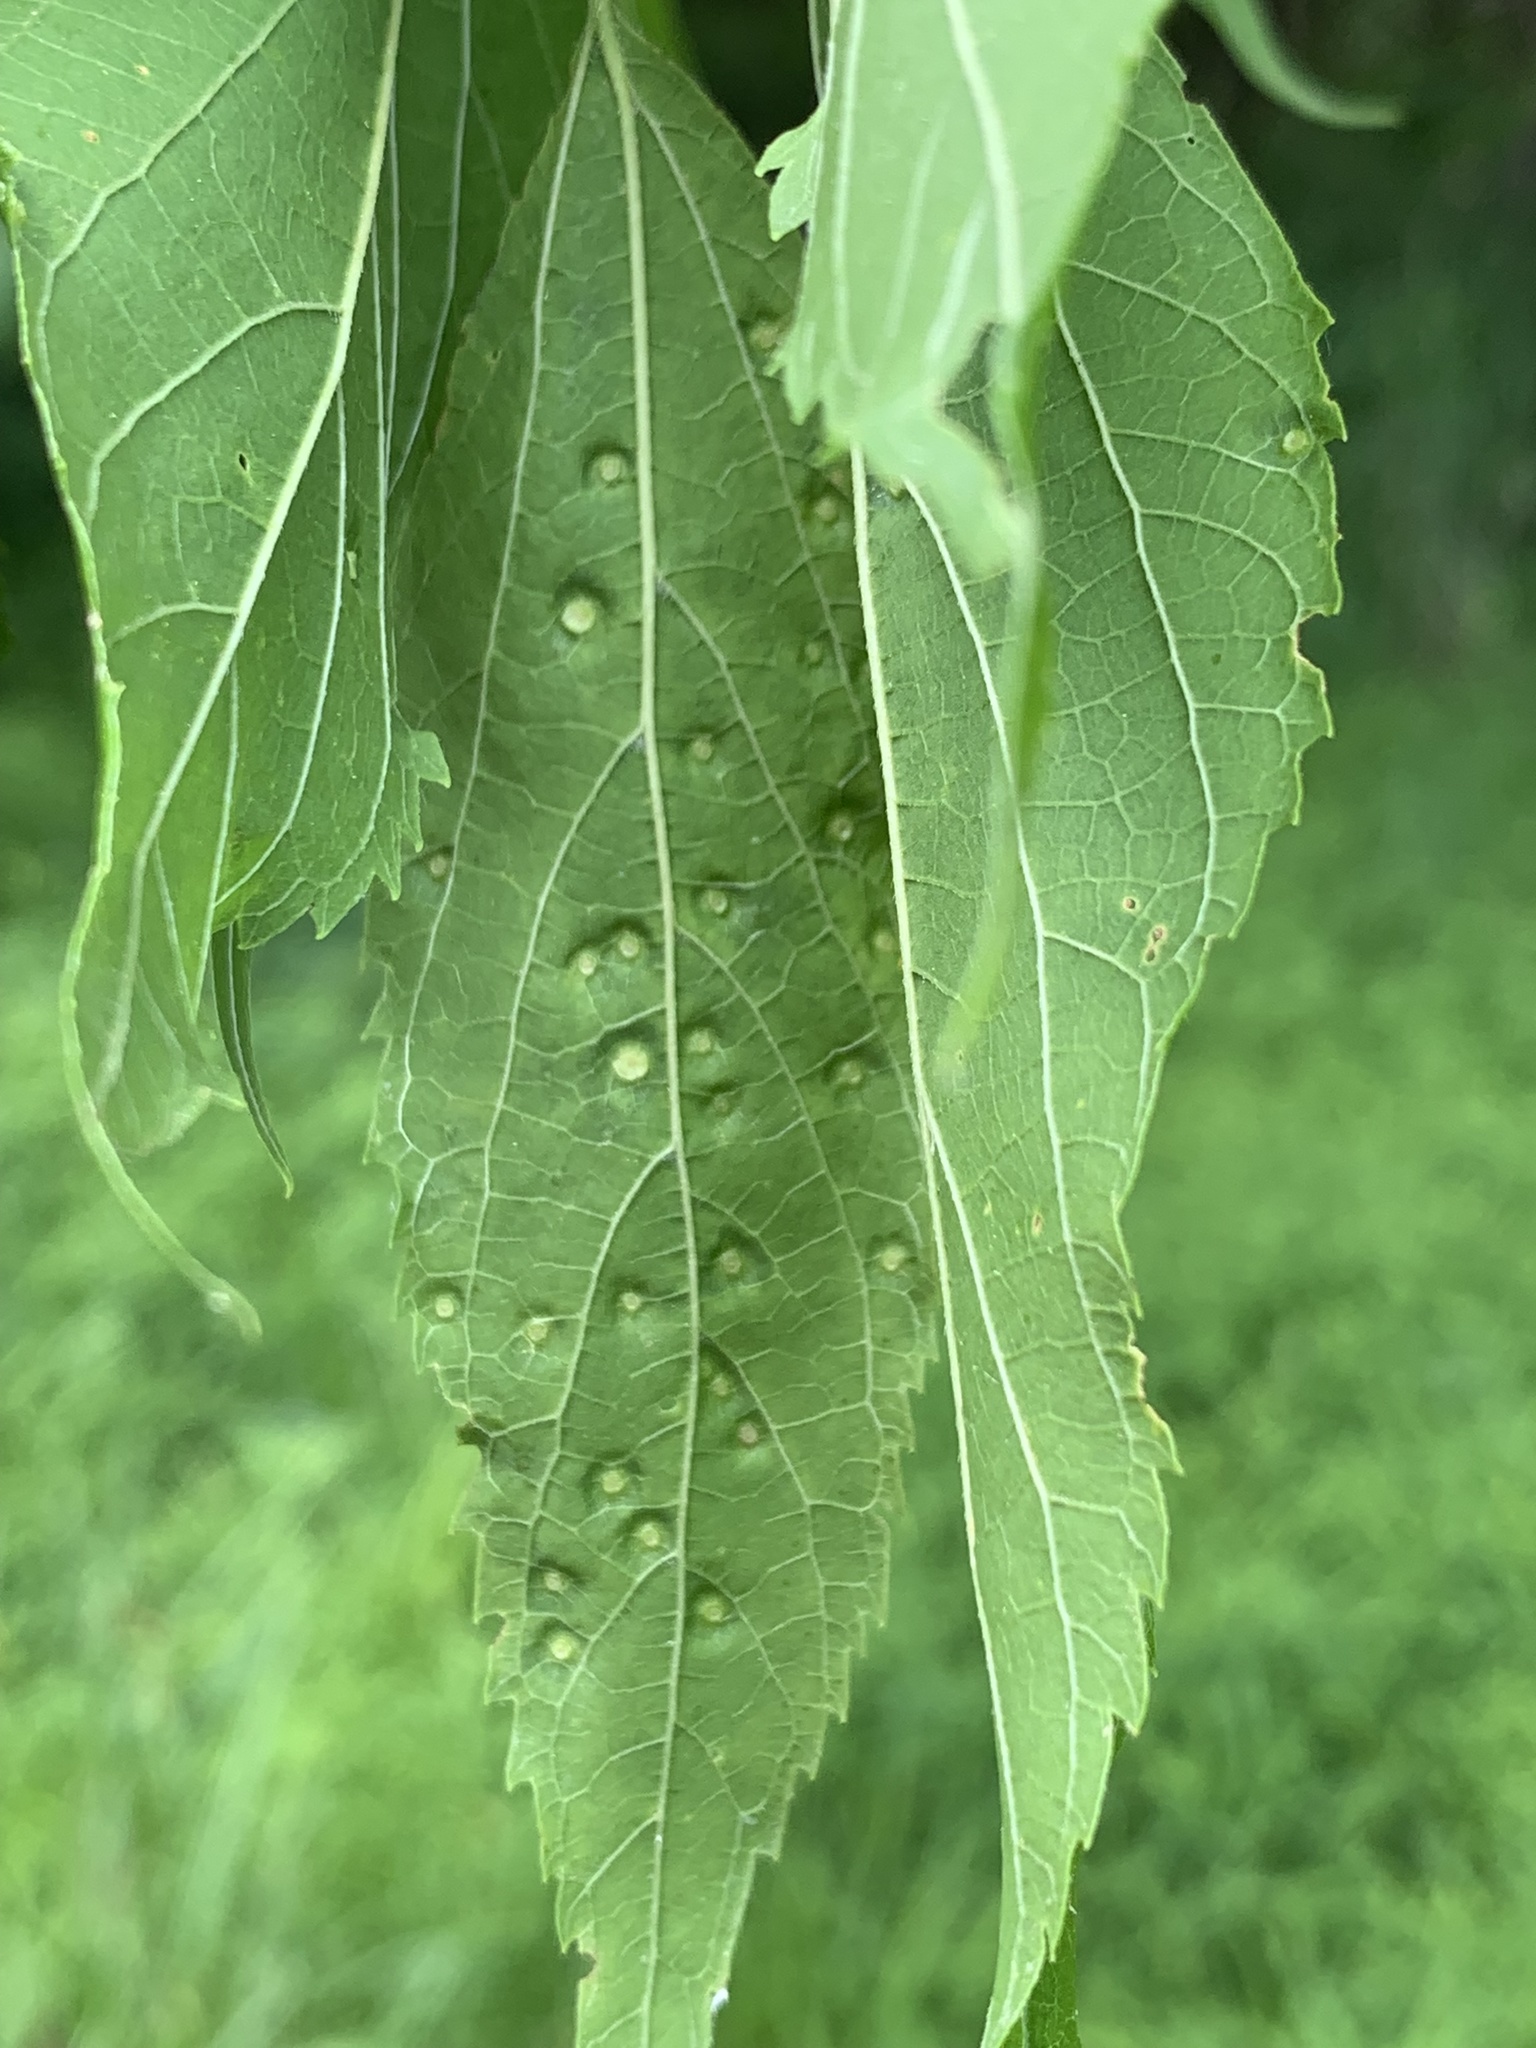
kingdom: Animalia
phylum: Arthropoda
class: Insecta
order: Hemiptera
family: Aphalaridae
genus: Pachypsylla
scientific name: Pachypsylla celtidisasterisca
